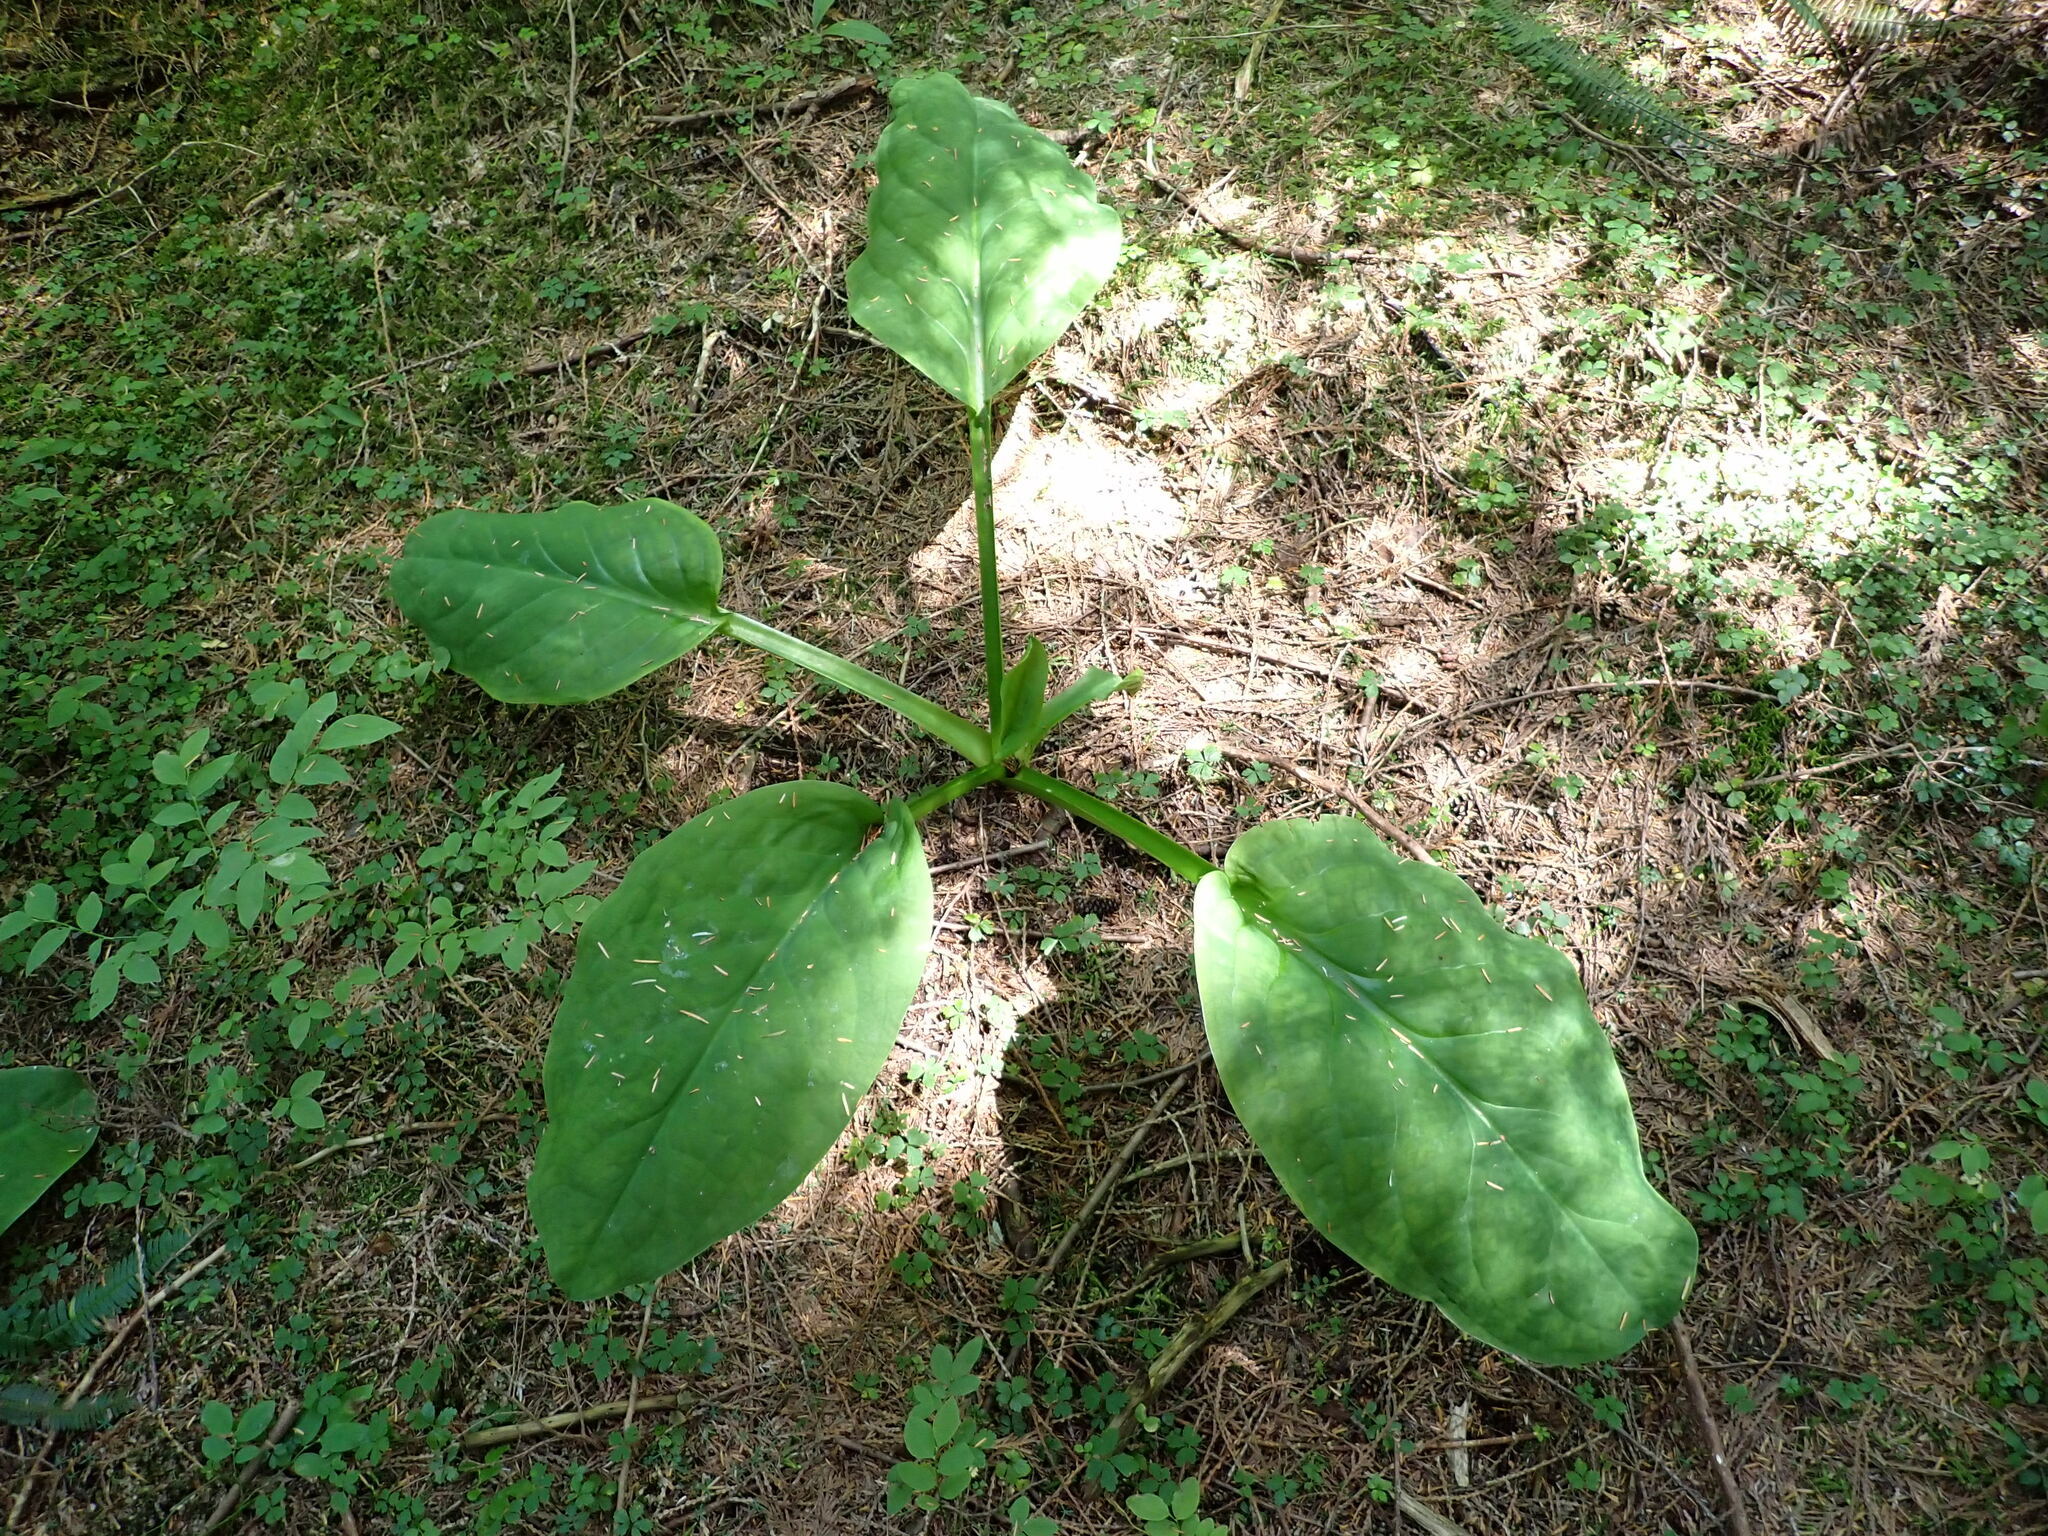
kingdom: Plantae
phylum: Tracheophyta
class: Liliopsida
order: Alismatales
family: Araceae
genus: Lysichiton
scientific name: Lysichiton americanus
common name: American skunk cabbage
